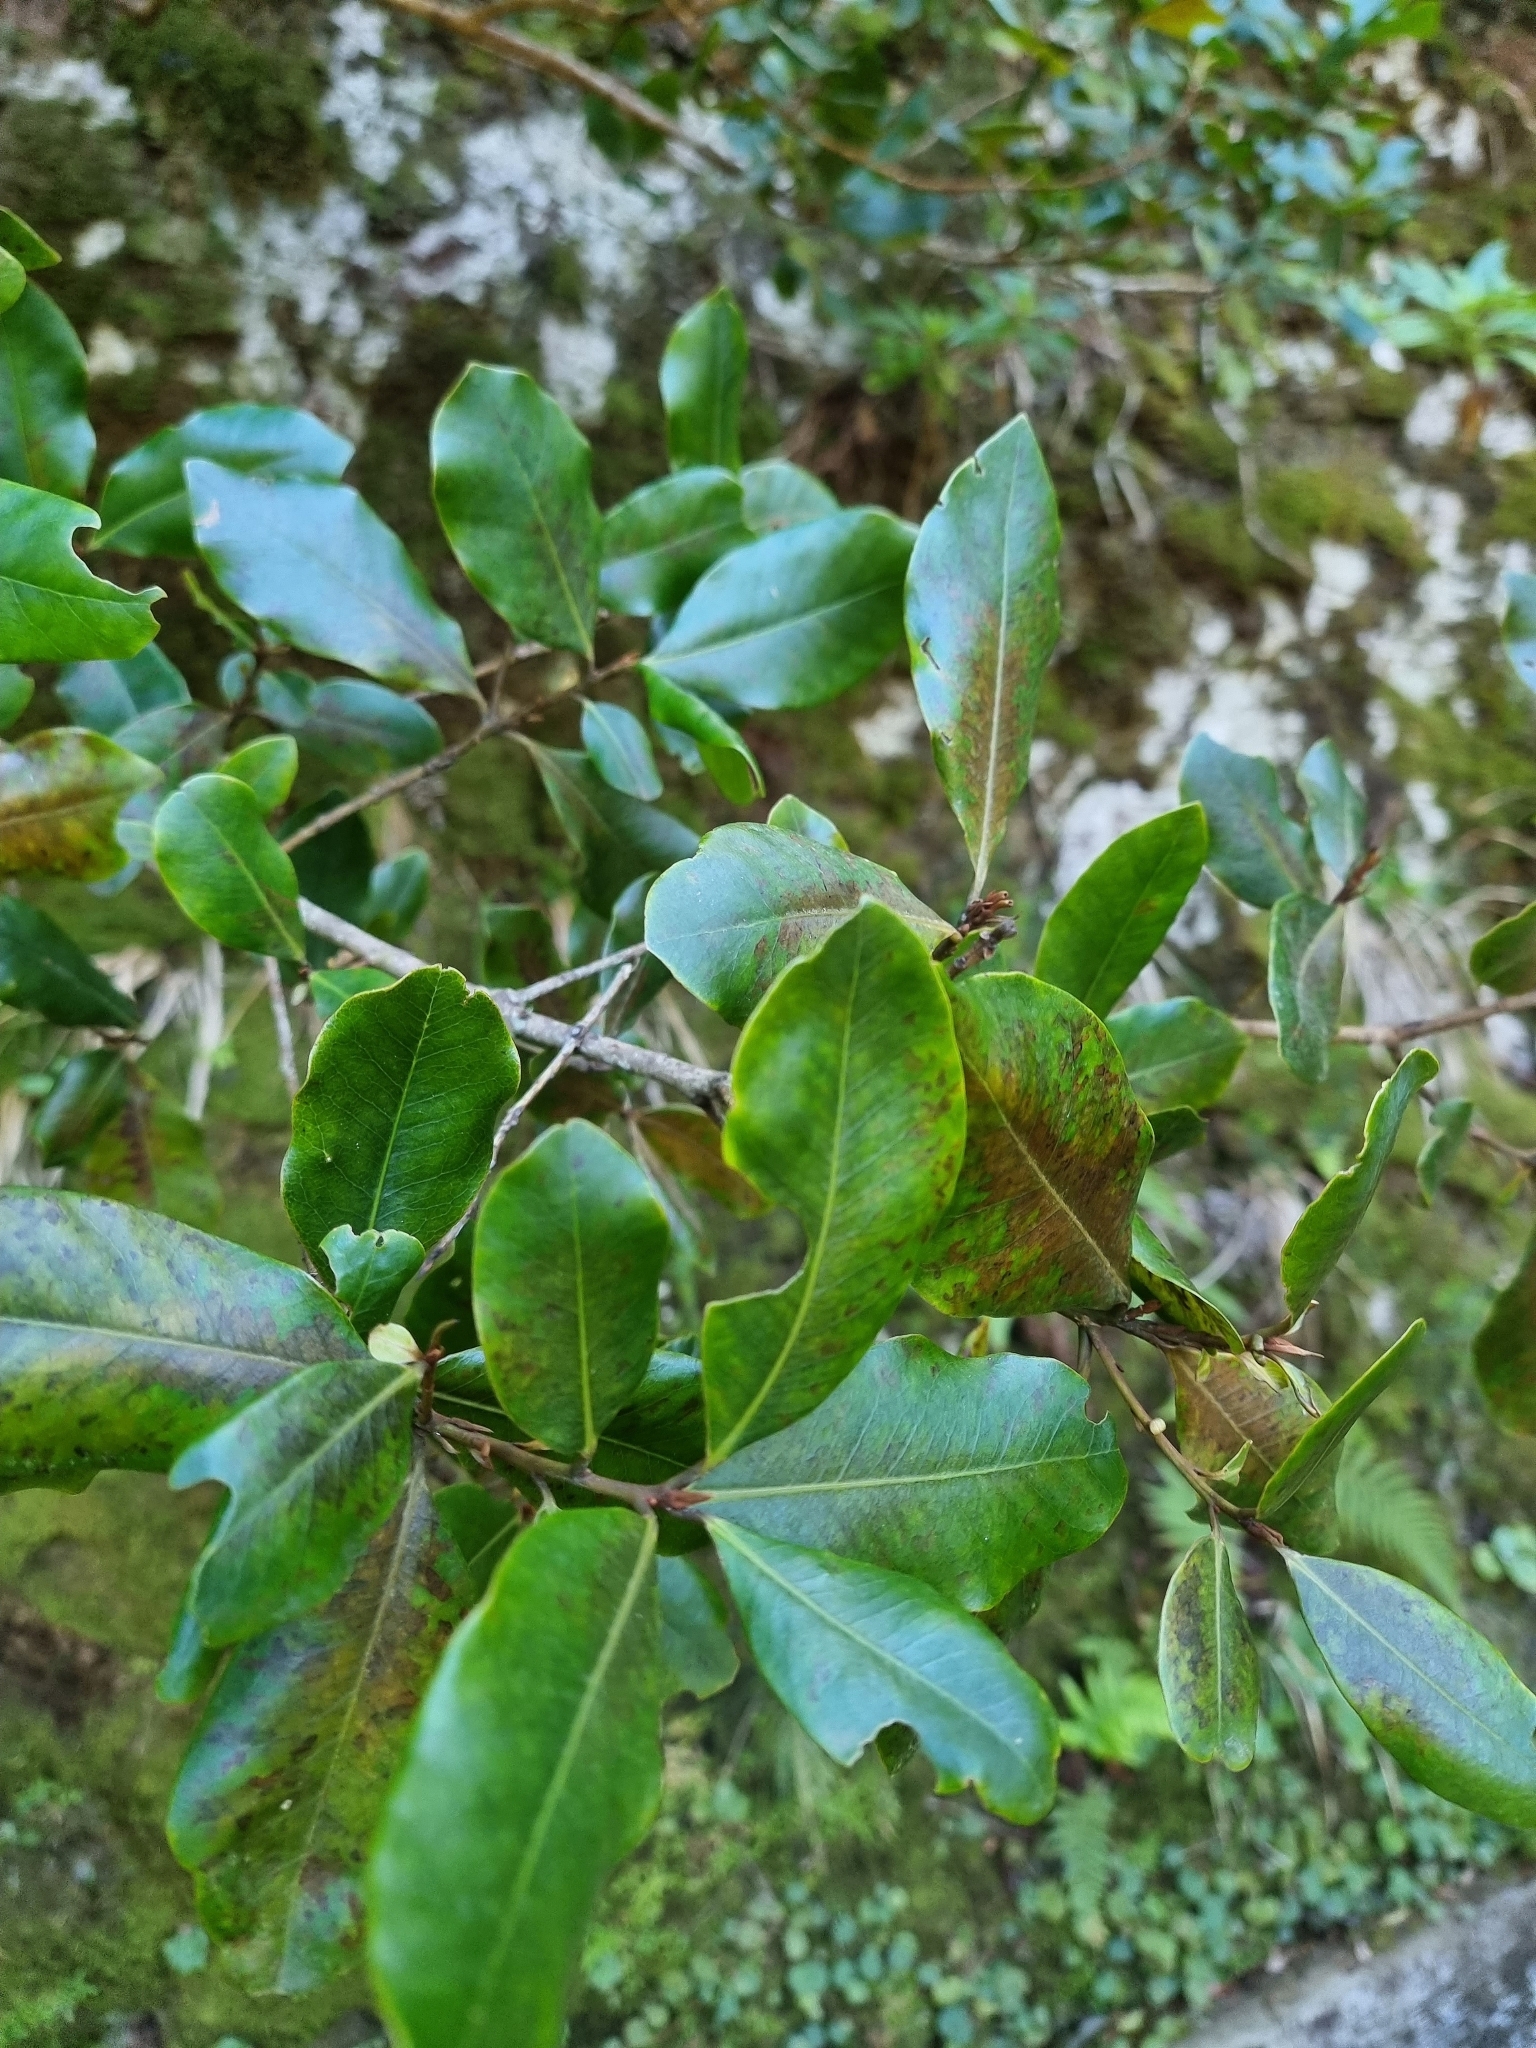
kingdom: Plantae
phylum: Tracheophyta
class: Magnoliopsida
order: Ericales
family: Primulaceae
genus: Heberdenia
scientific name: Heberdenia excelsa
